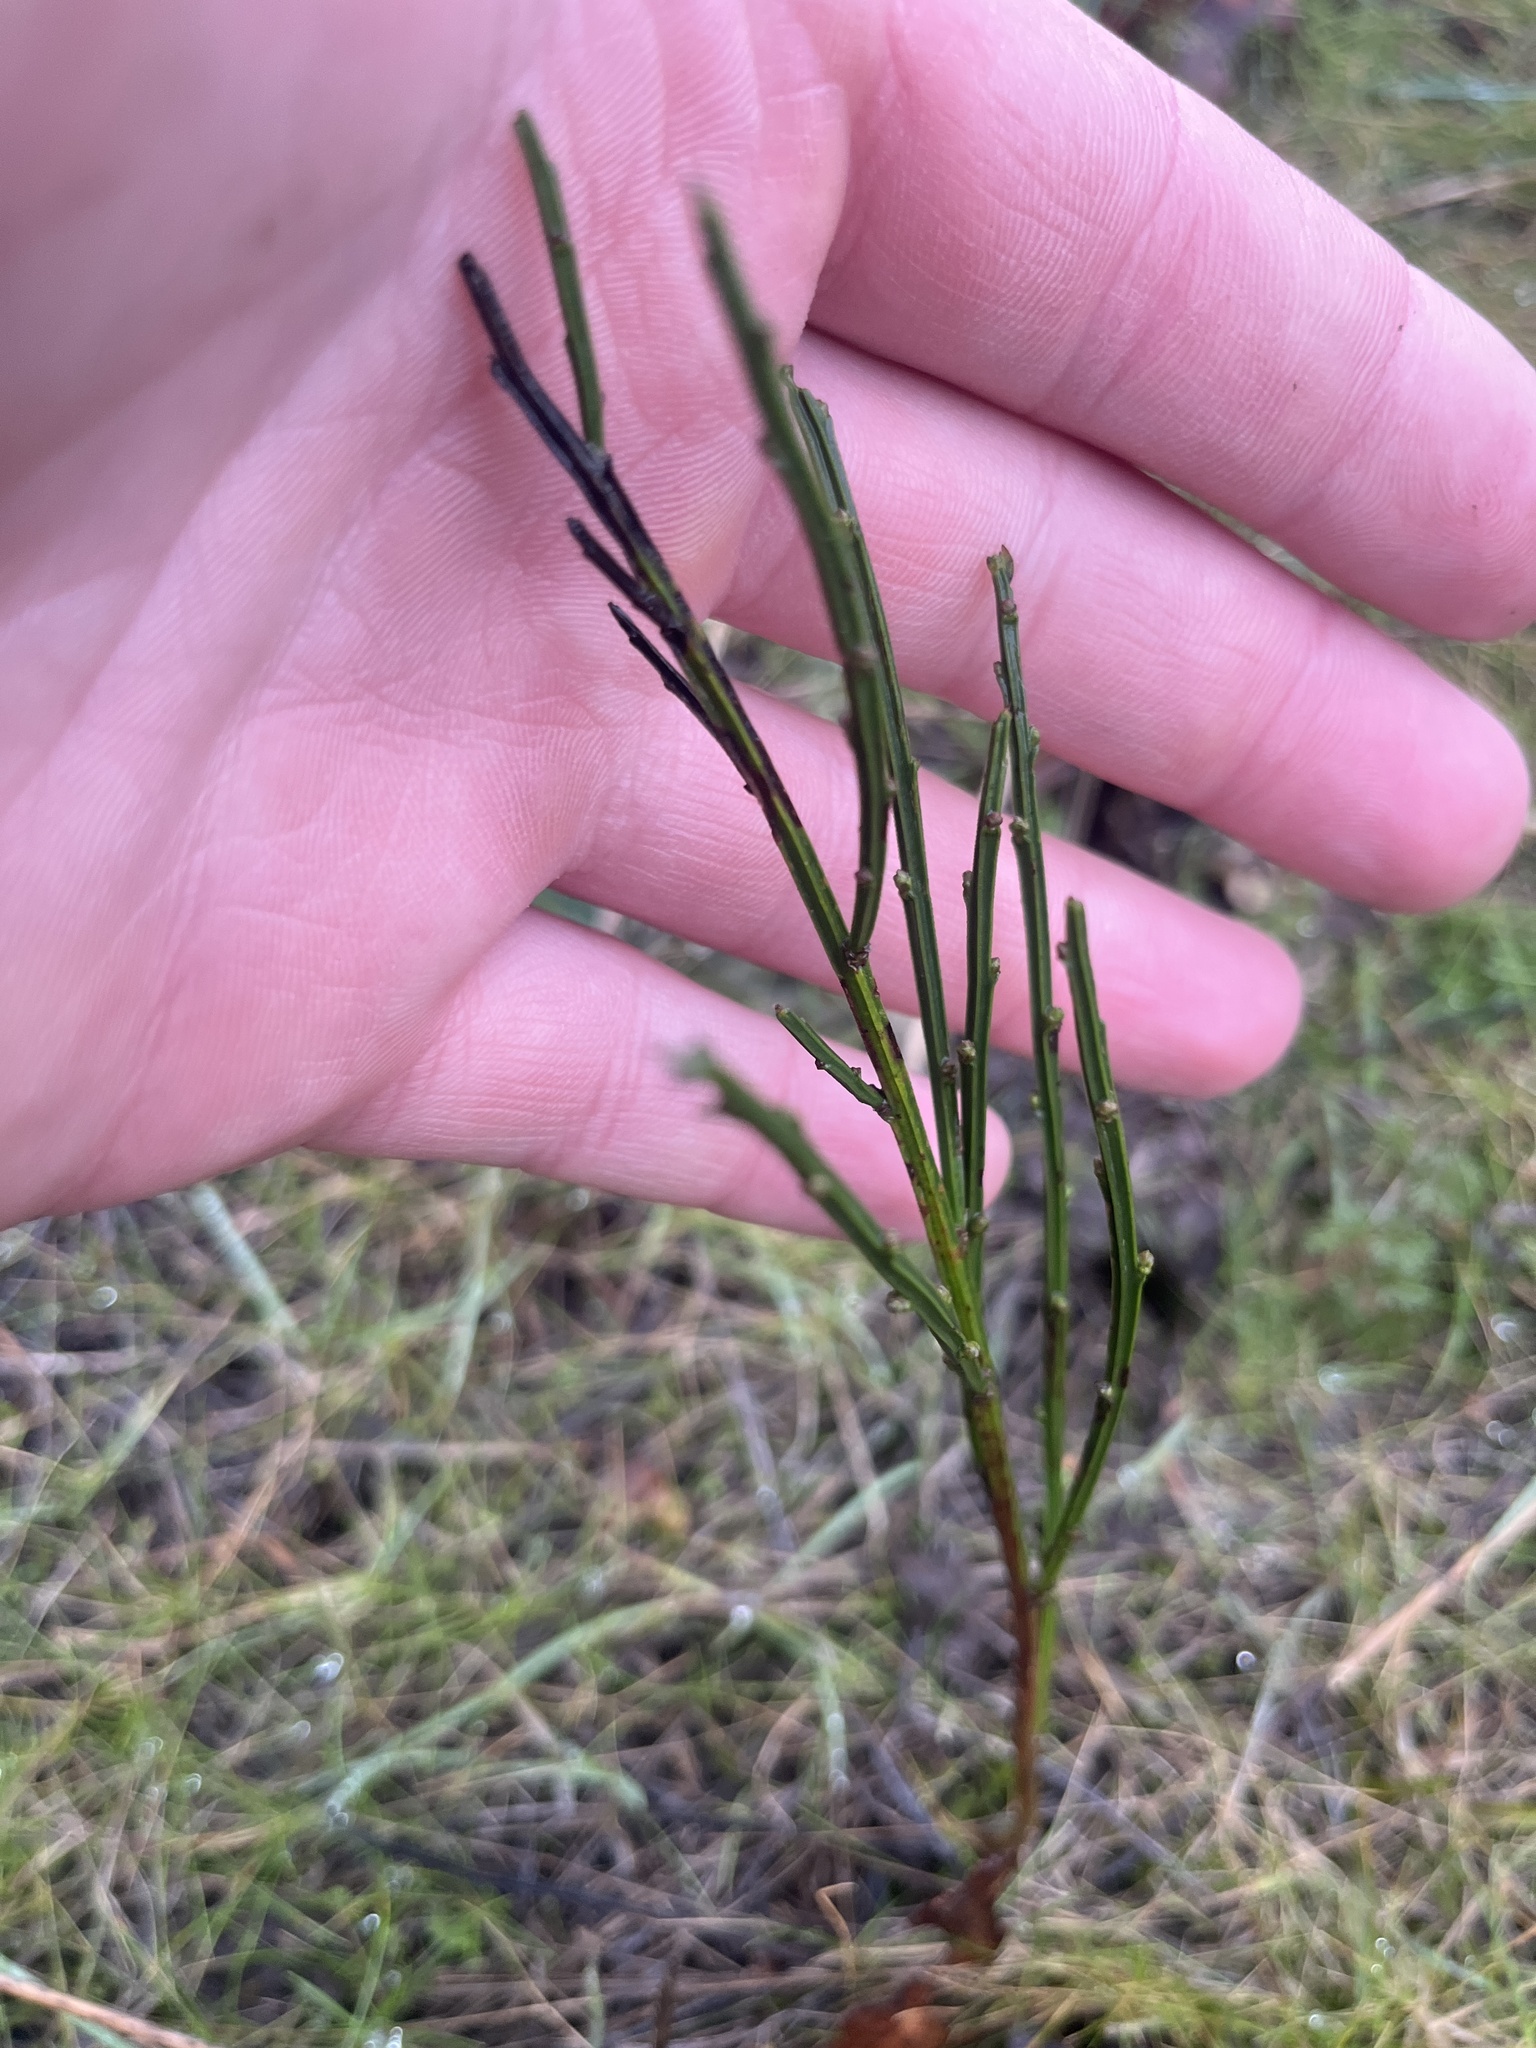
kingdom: Plantae
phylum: Tracheophyta
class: Magnoliopsida
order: Fabales
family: Fabaceae
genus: Cytisus
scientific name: Cytisus scoparius
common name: Scotch broom
